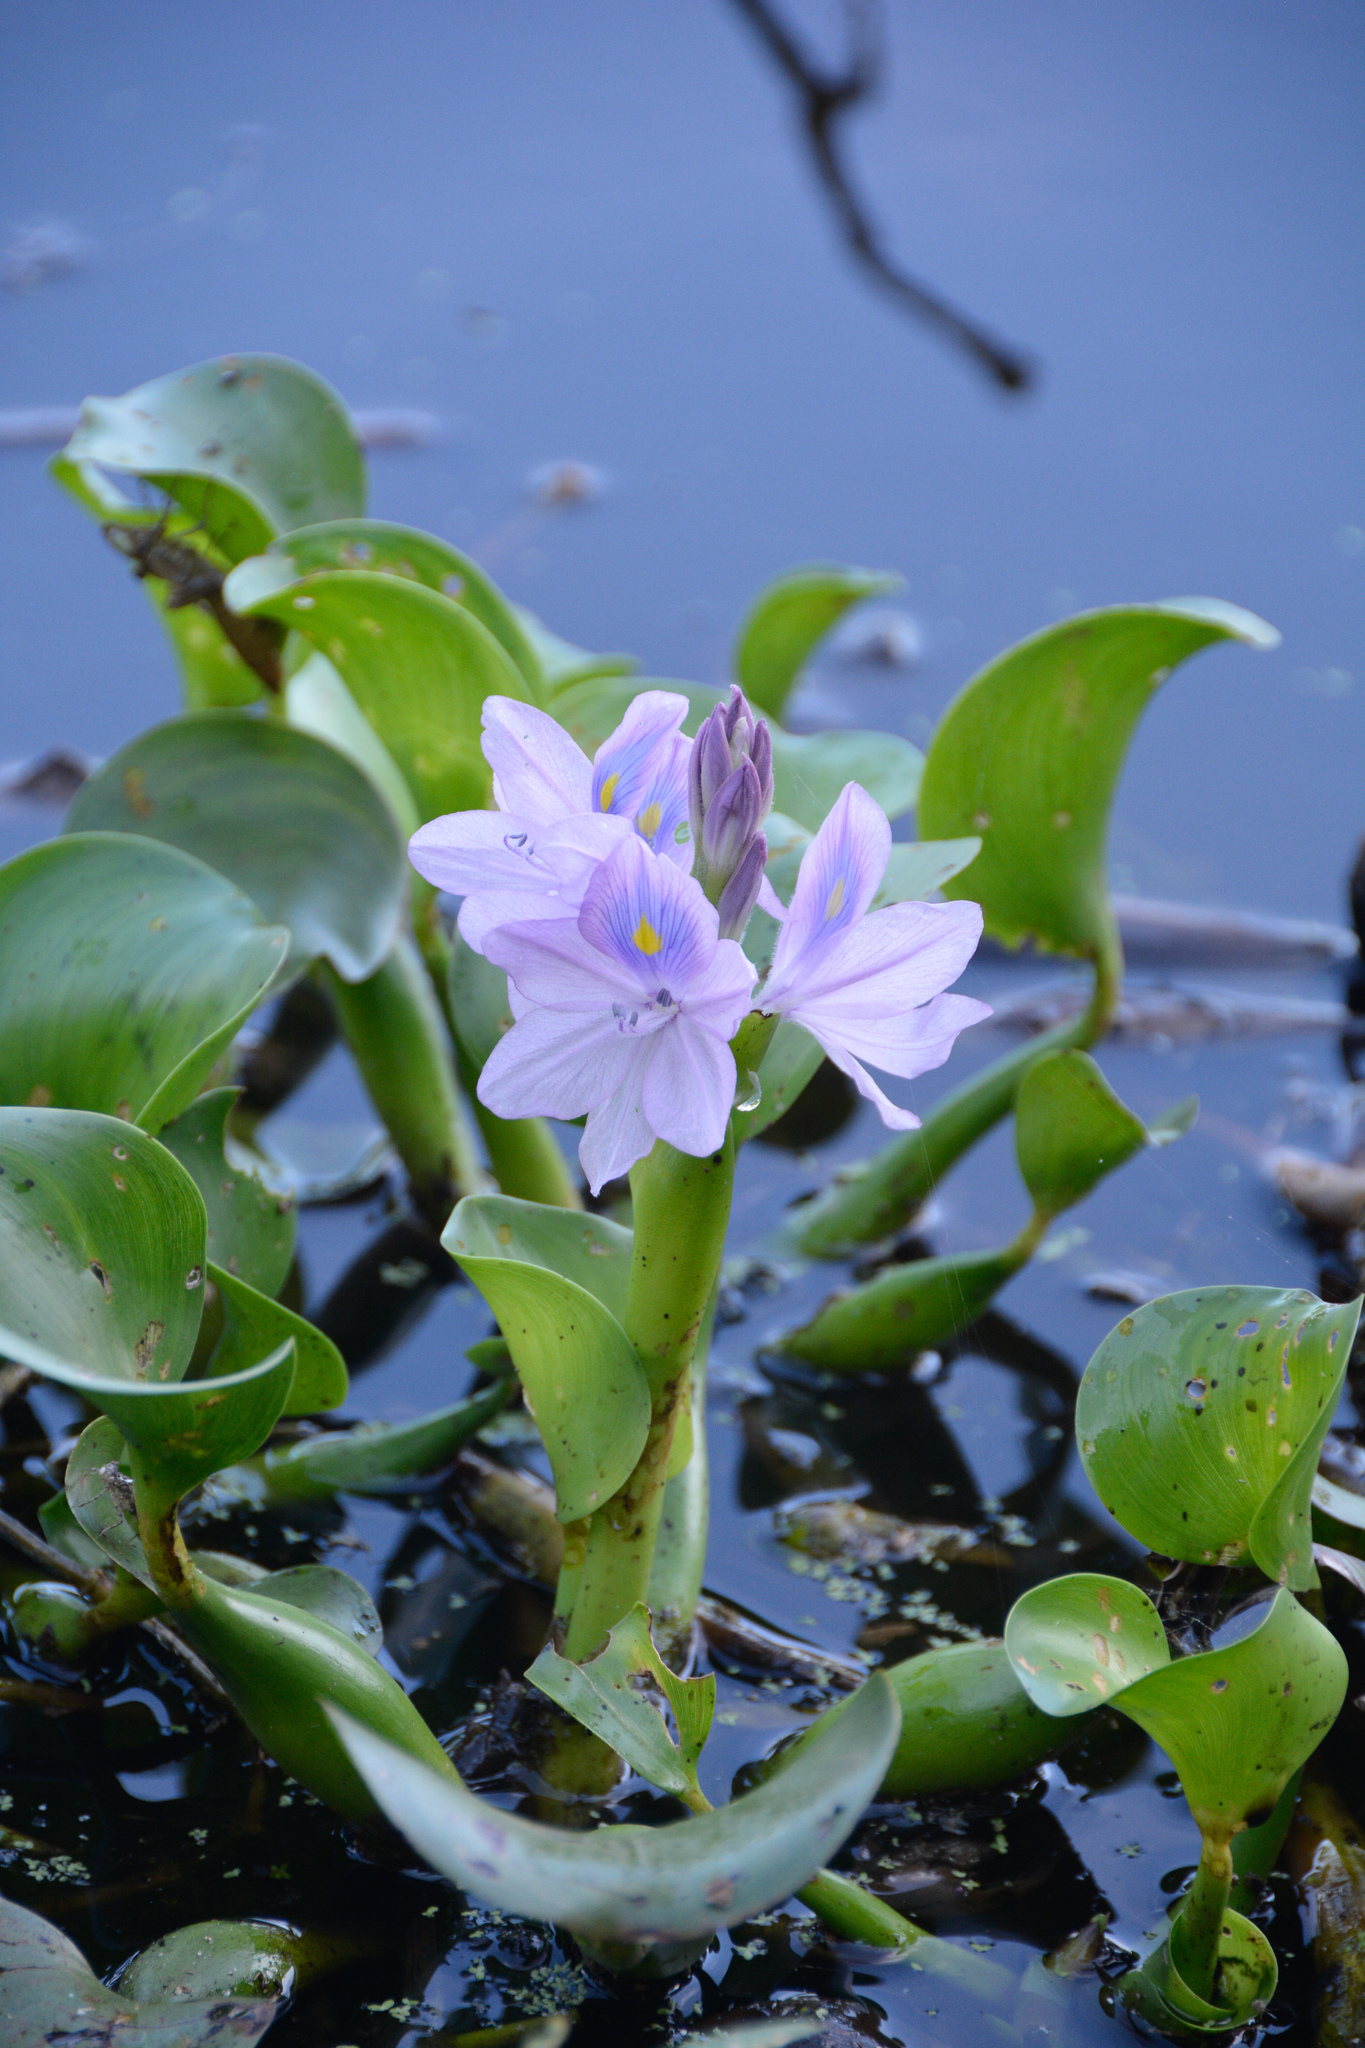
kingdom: Plantae
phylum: Tracheophyta
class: Liliopsida
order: Commelinales
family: Pontederiaceae
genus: Pontederia
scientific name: Pontederia crassipes
